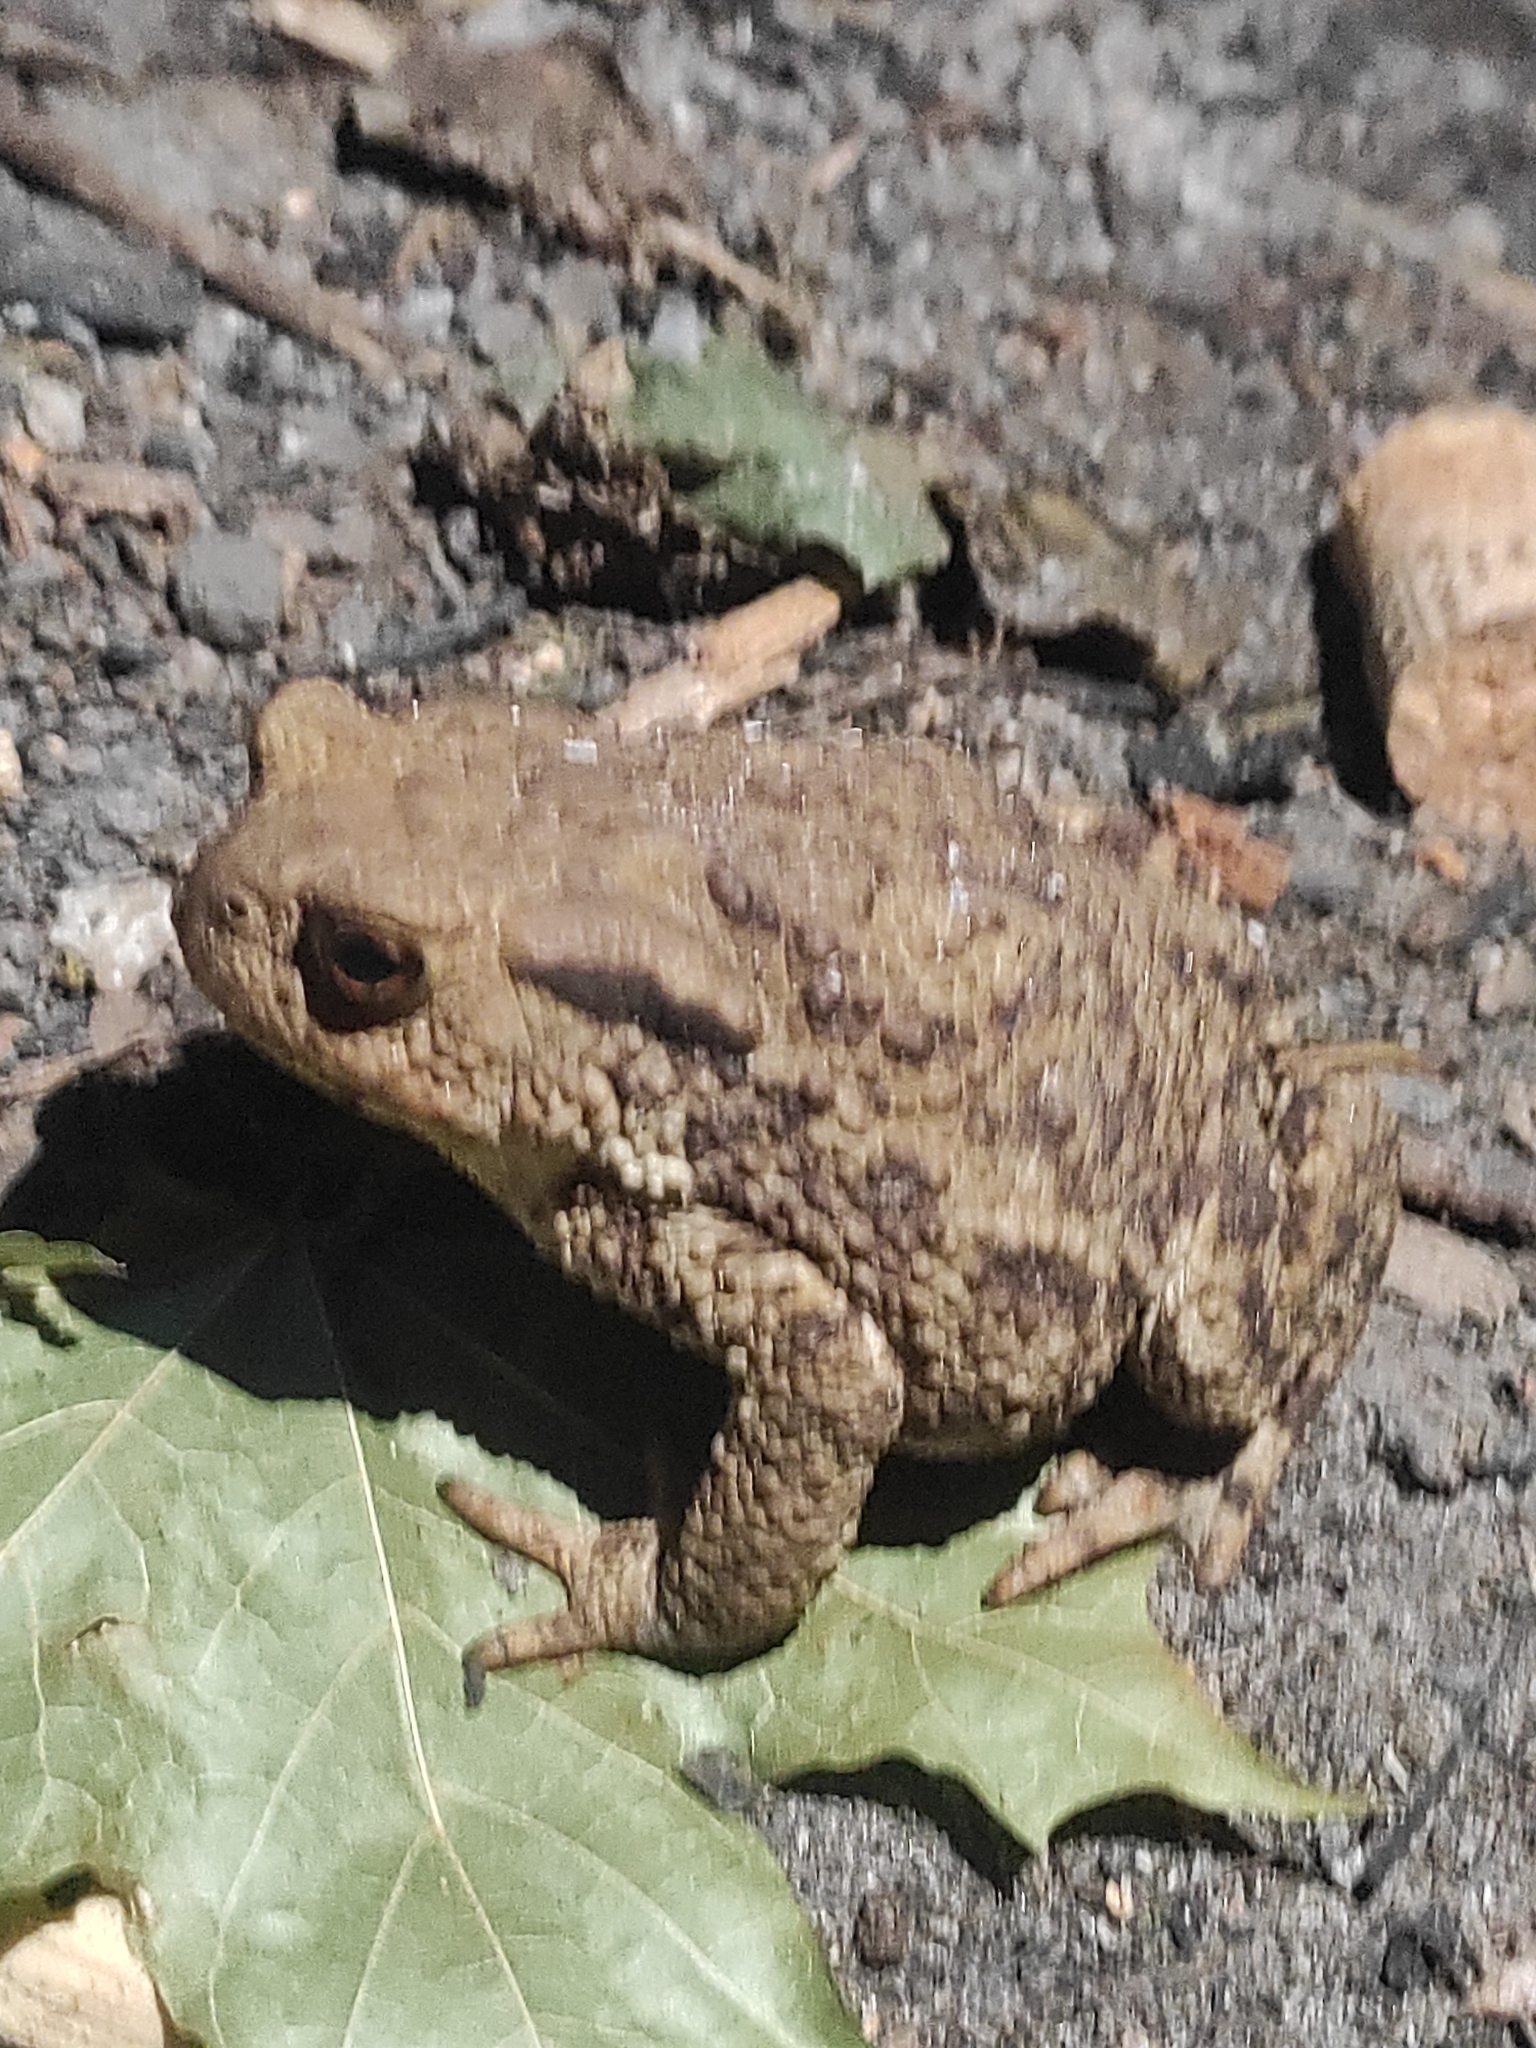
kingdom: Animalia
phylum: Chordata
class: Amphibia
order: Anura
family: Bufonidae
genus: Bufo
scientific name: Bufo bufo
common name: Common toad
